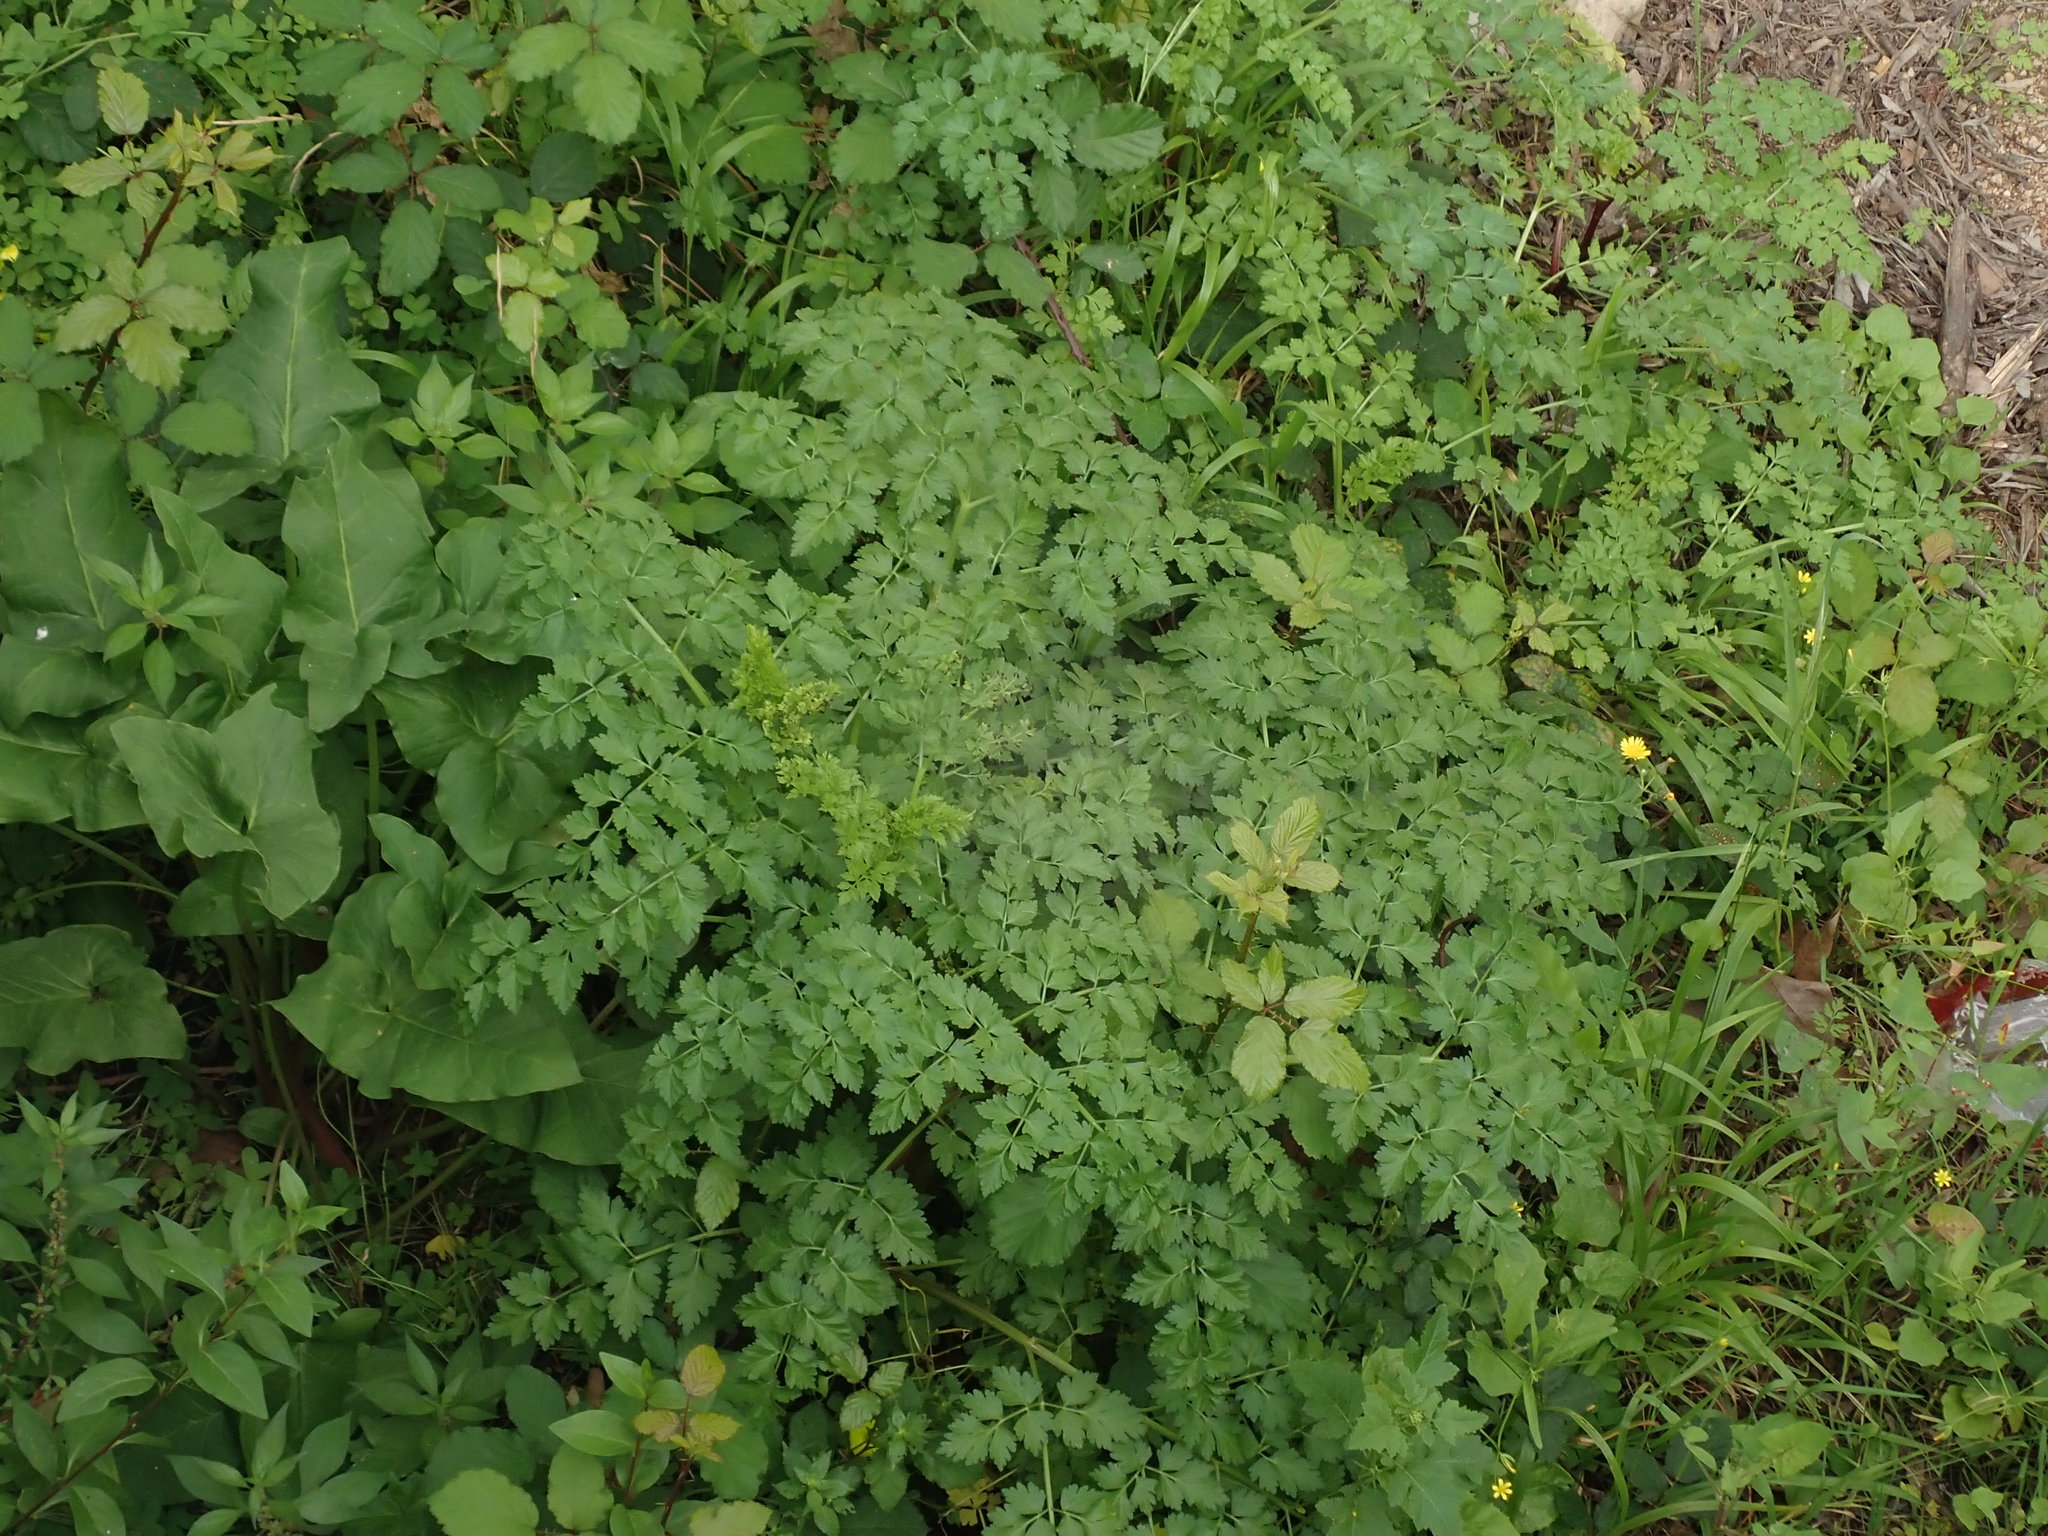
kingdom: Plantae
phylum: Tracheophyta
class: Magnoliopsida
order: Apiales
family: Apiaceae
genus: Oenanthe
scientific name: Oenanthe crocata
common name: Hemlock water-dropwort
